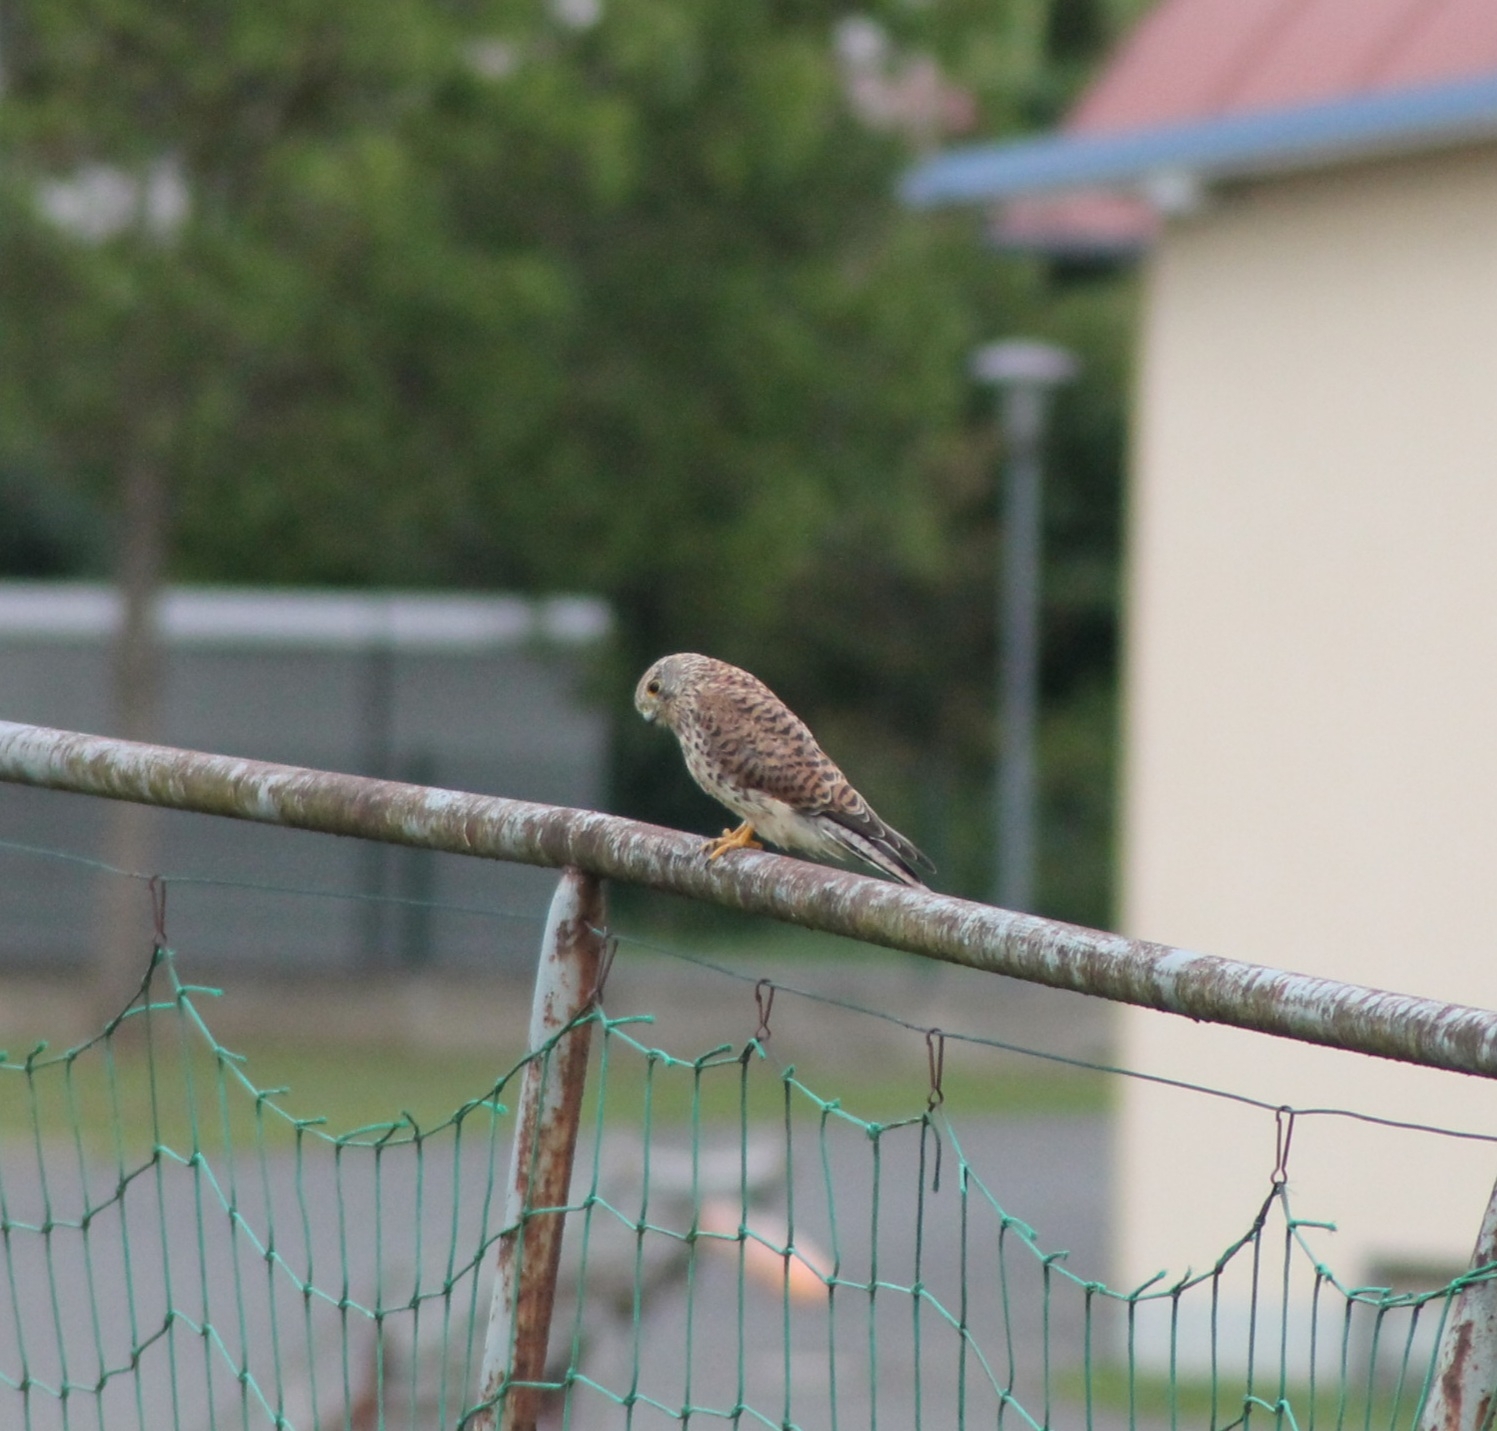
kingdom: Animalia
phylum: Chordata
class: Aves
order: Falconiformes
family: Falconidae
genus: Falco
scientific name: Falco tinnunculus
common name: Common kestrel
